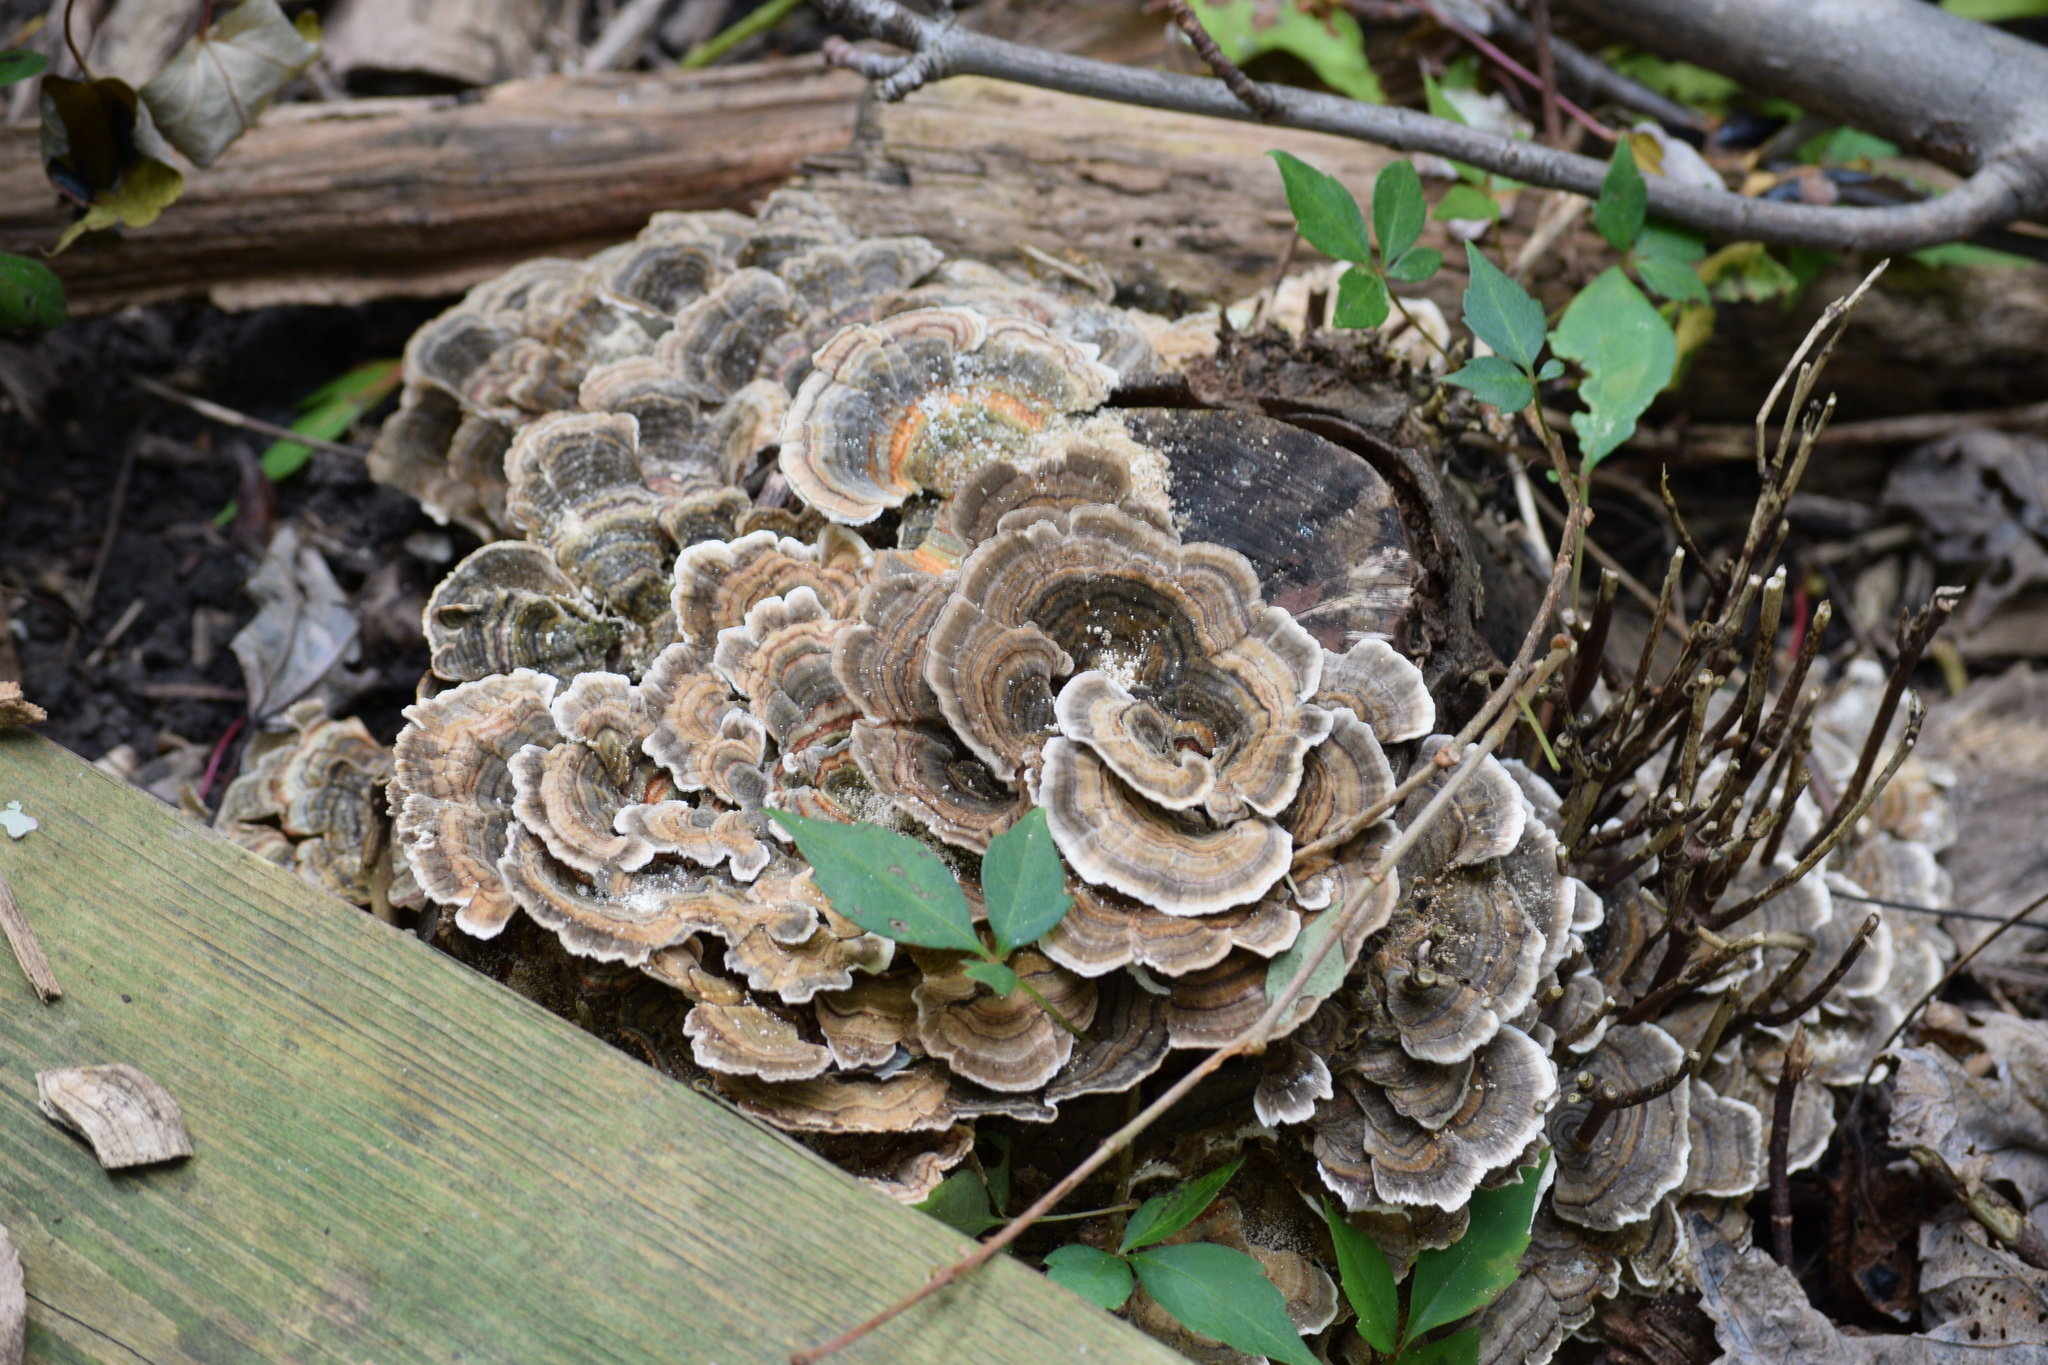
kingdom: Fungi
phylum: Basidiomycota
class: Agaricomycetes
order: Polyporales
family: Polyporaceae
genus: Trametes
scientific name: Trametes versicolor
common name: Turkeytail
